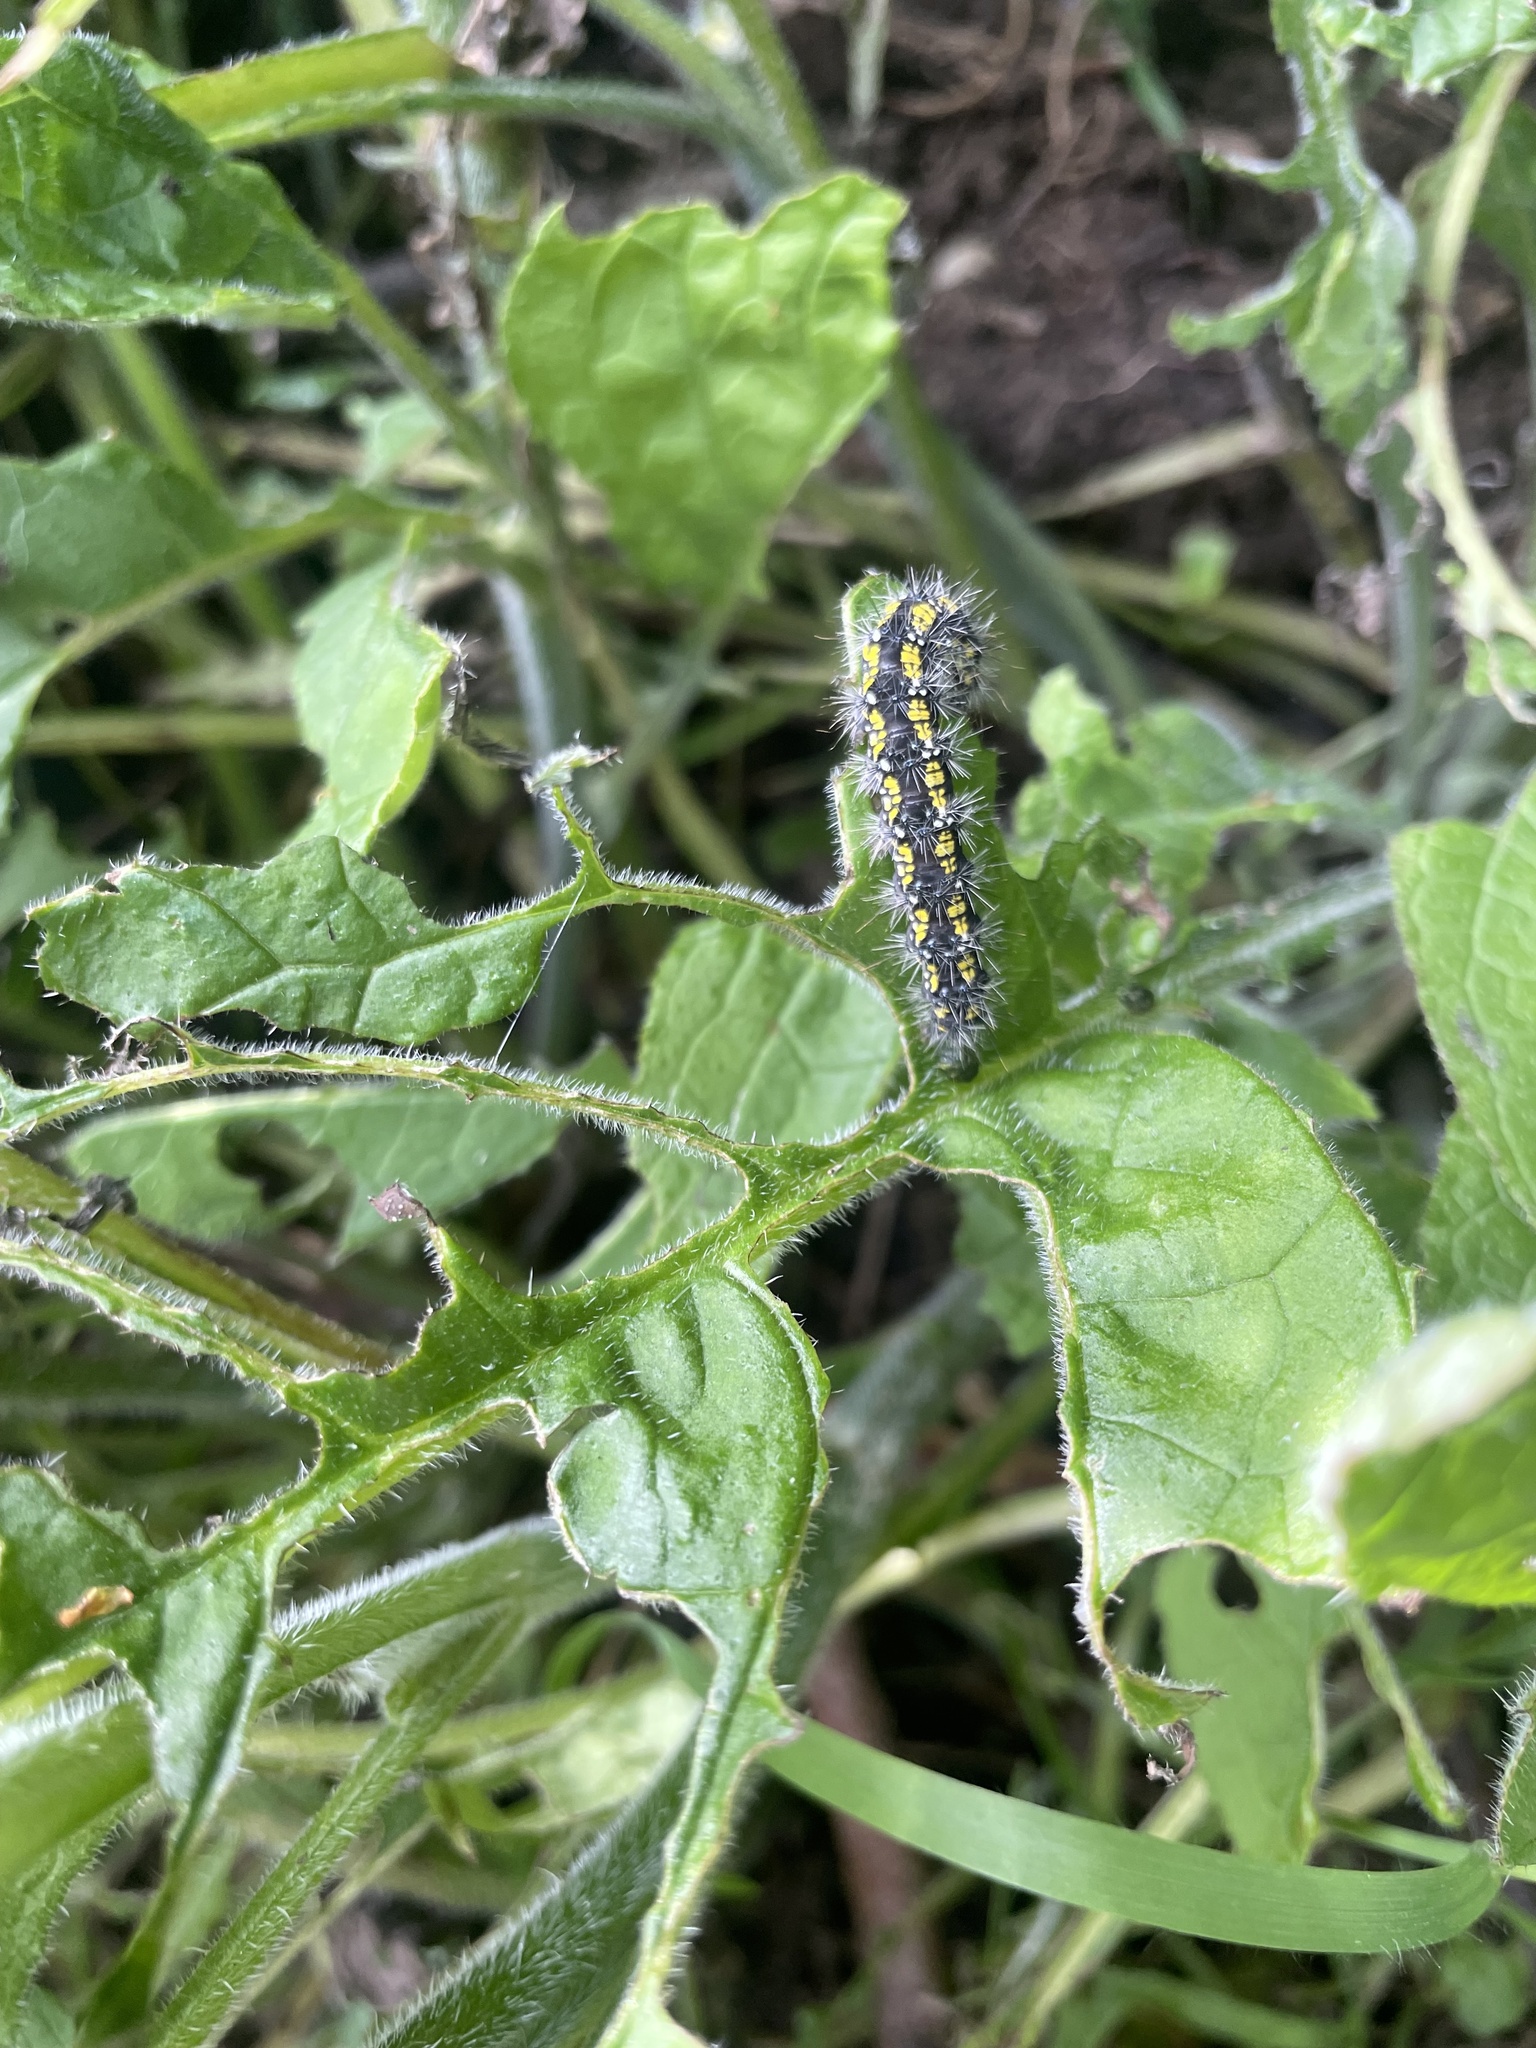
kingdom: Animalia
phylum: Arthropoda
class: Insecta
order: Lepidoptera
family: Erebidae
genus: Callimorpha
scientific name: Callimorpha dominula
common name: Scarlet tiger
